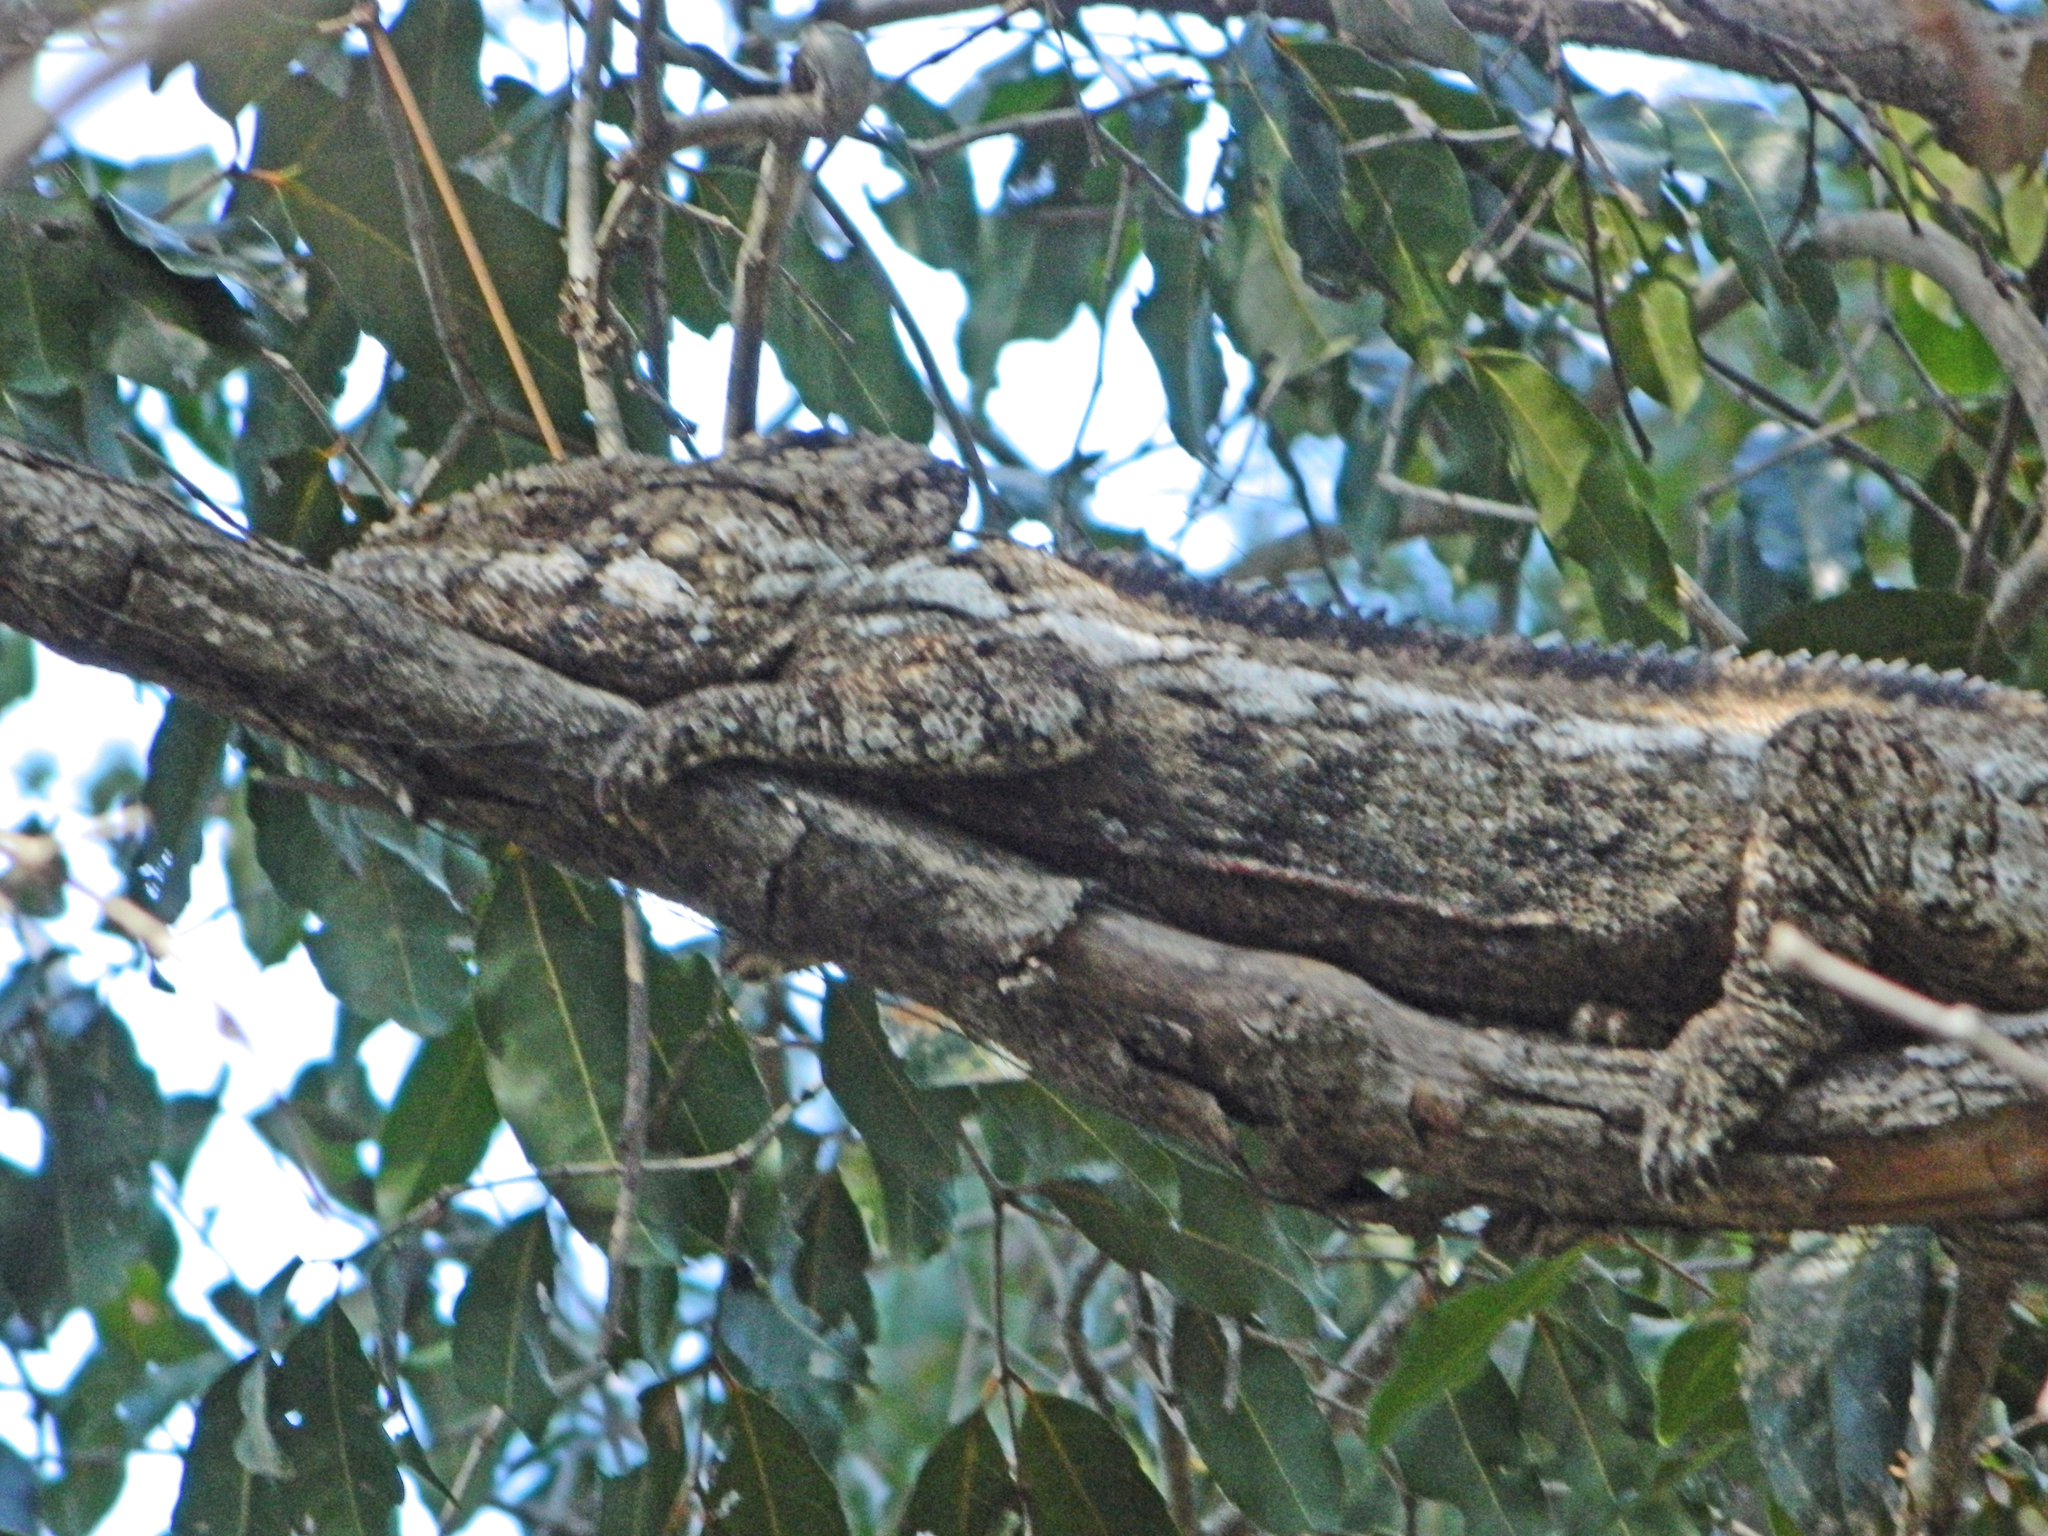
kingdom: Animalia
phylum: Chordata
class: Squamata
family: Chamaeleonidae
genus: Furcifer
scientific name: Furcifer oustaleti
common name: Oustalet's chameleon
